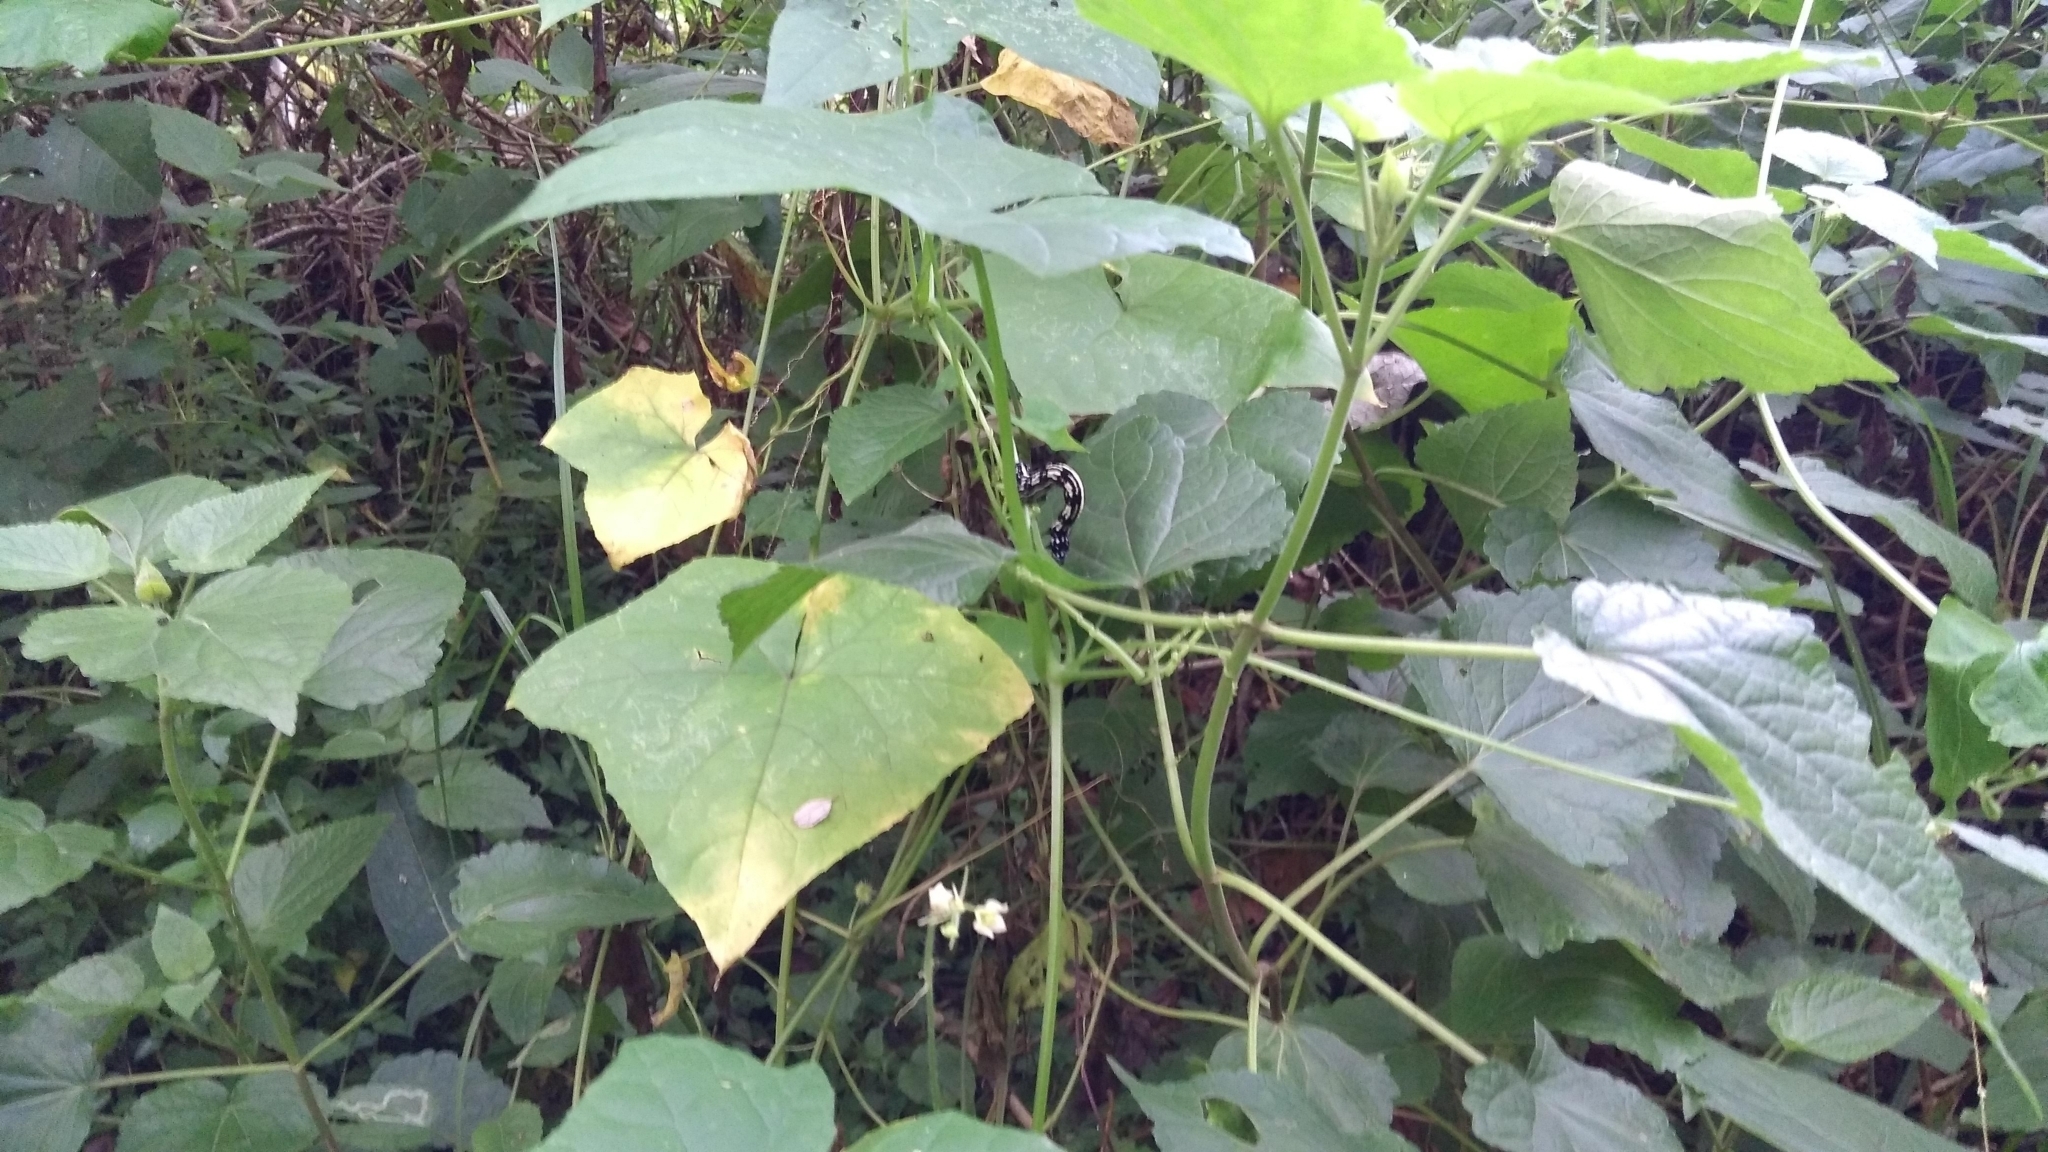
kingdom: Animalia
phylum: Arthropoda
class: Insecta
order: Lepidoptera
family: Geometridae
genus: Acronyctodes
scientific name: Acronyctodes mexicanaria
